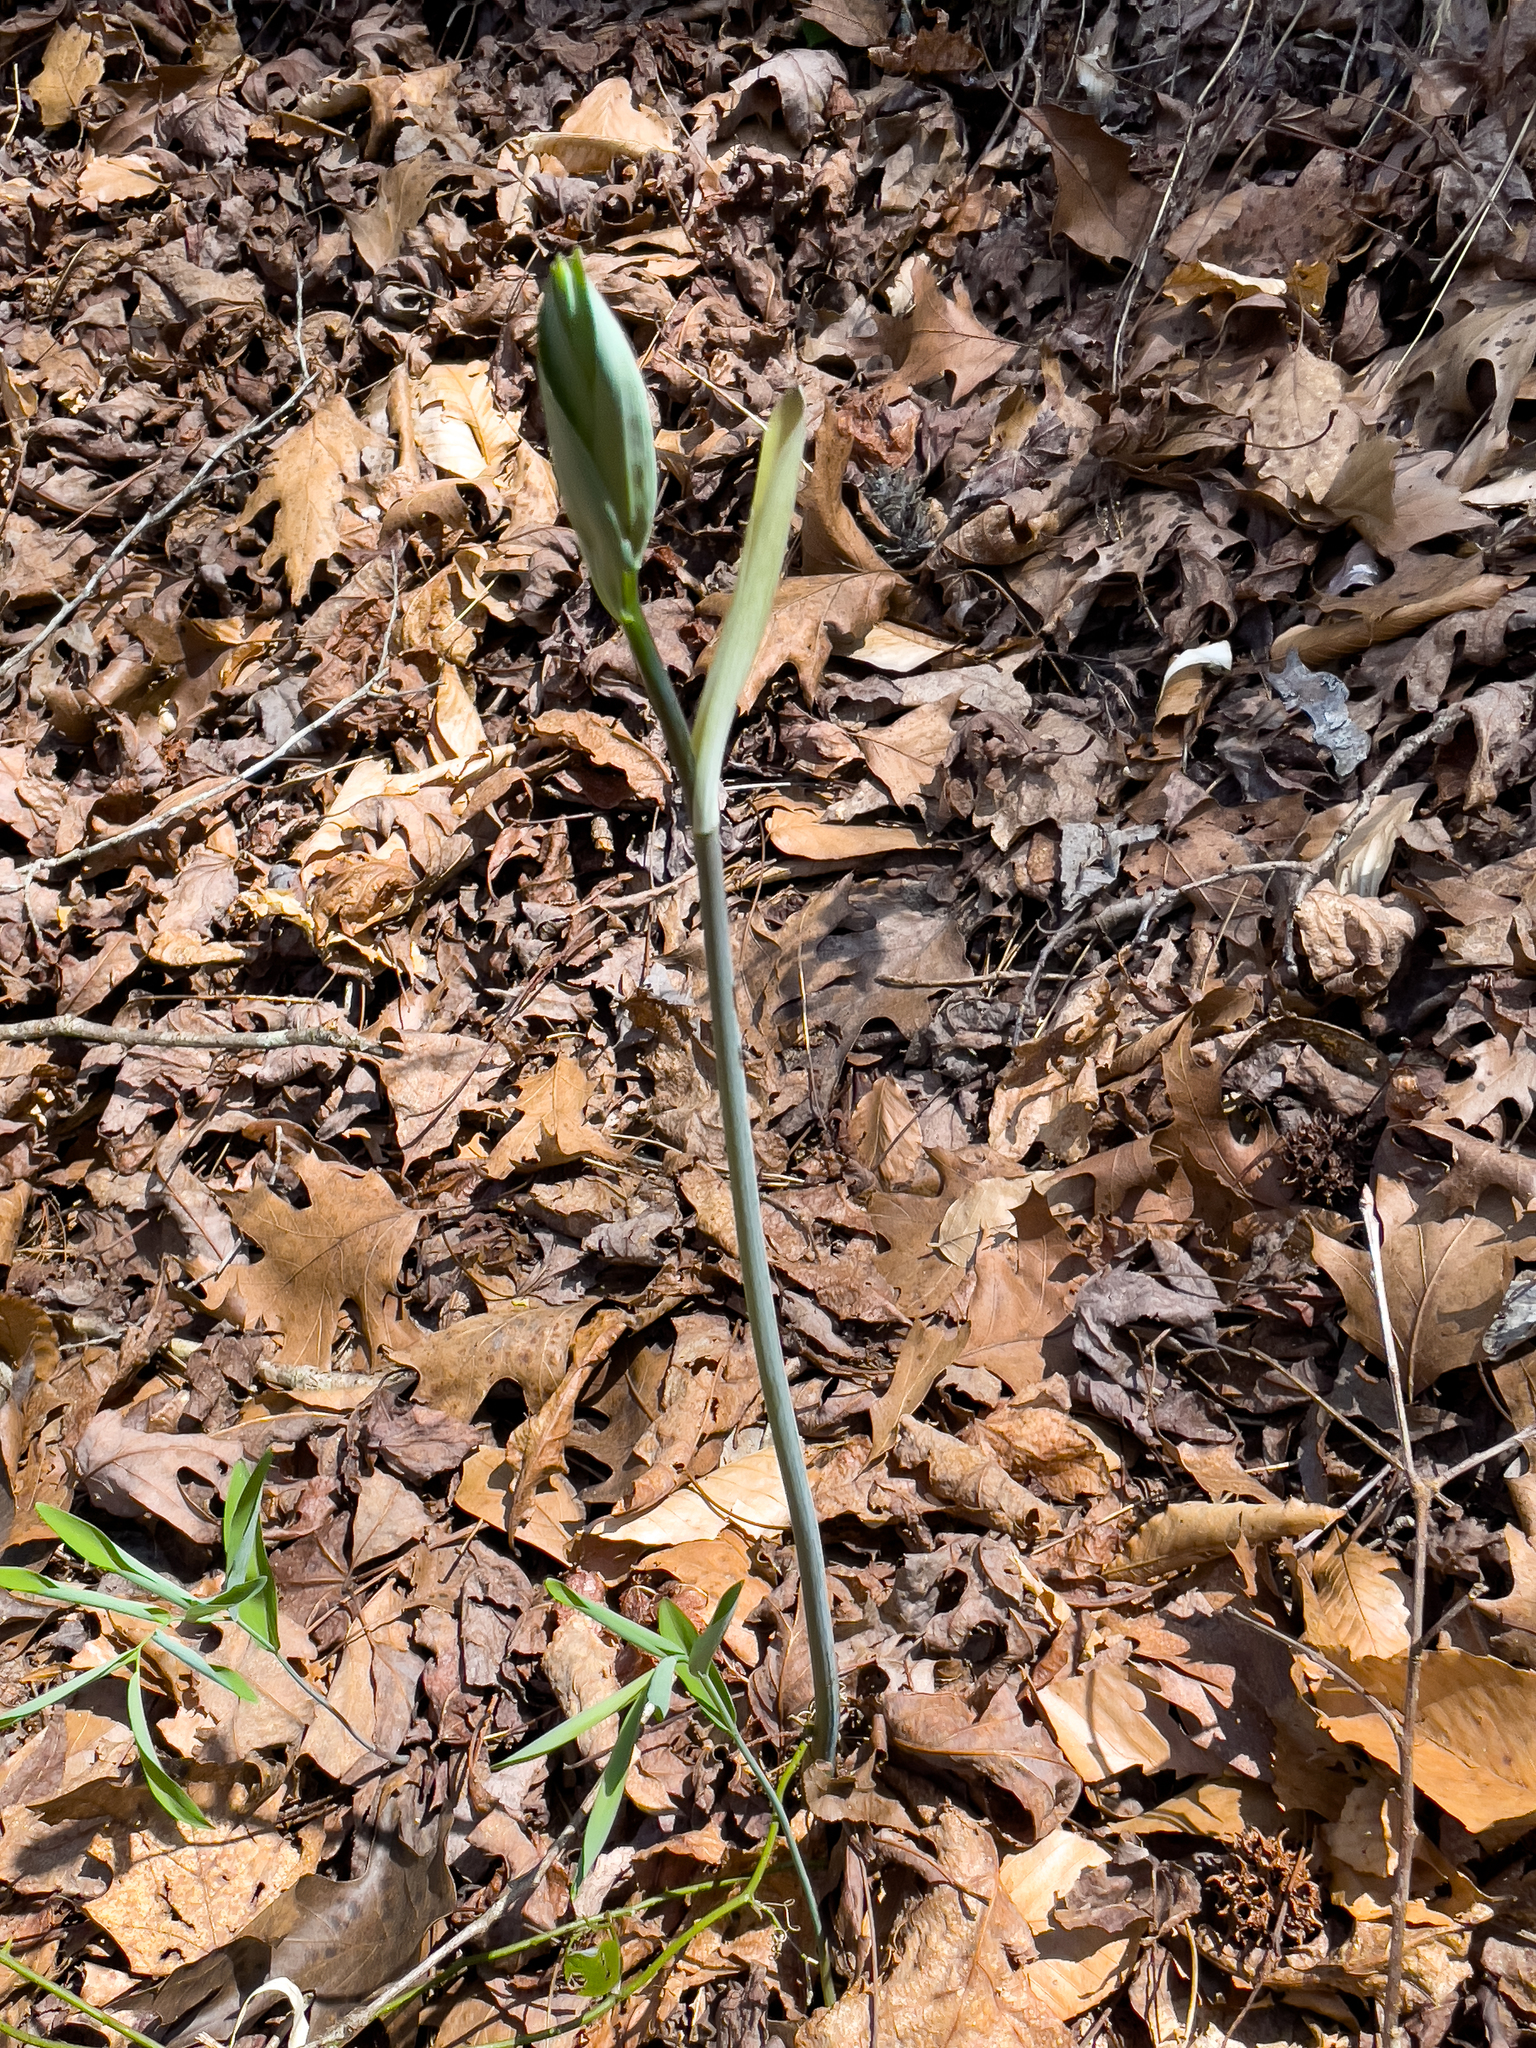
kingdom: Plantae
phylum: Tracheophyta
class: Liliopsida
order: Asparagales
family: Asparagaceae
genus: Polygonatum
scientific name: Polygonatum biflorum
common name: American solomon's-seal
